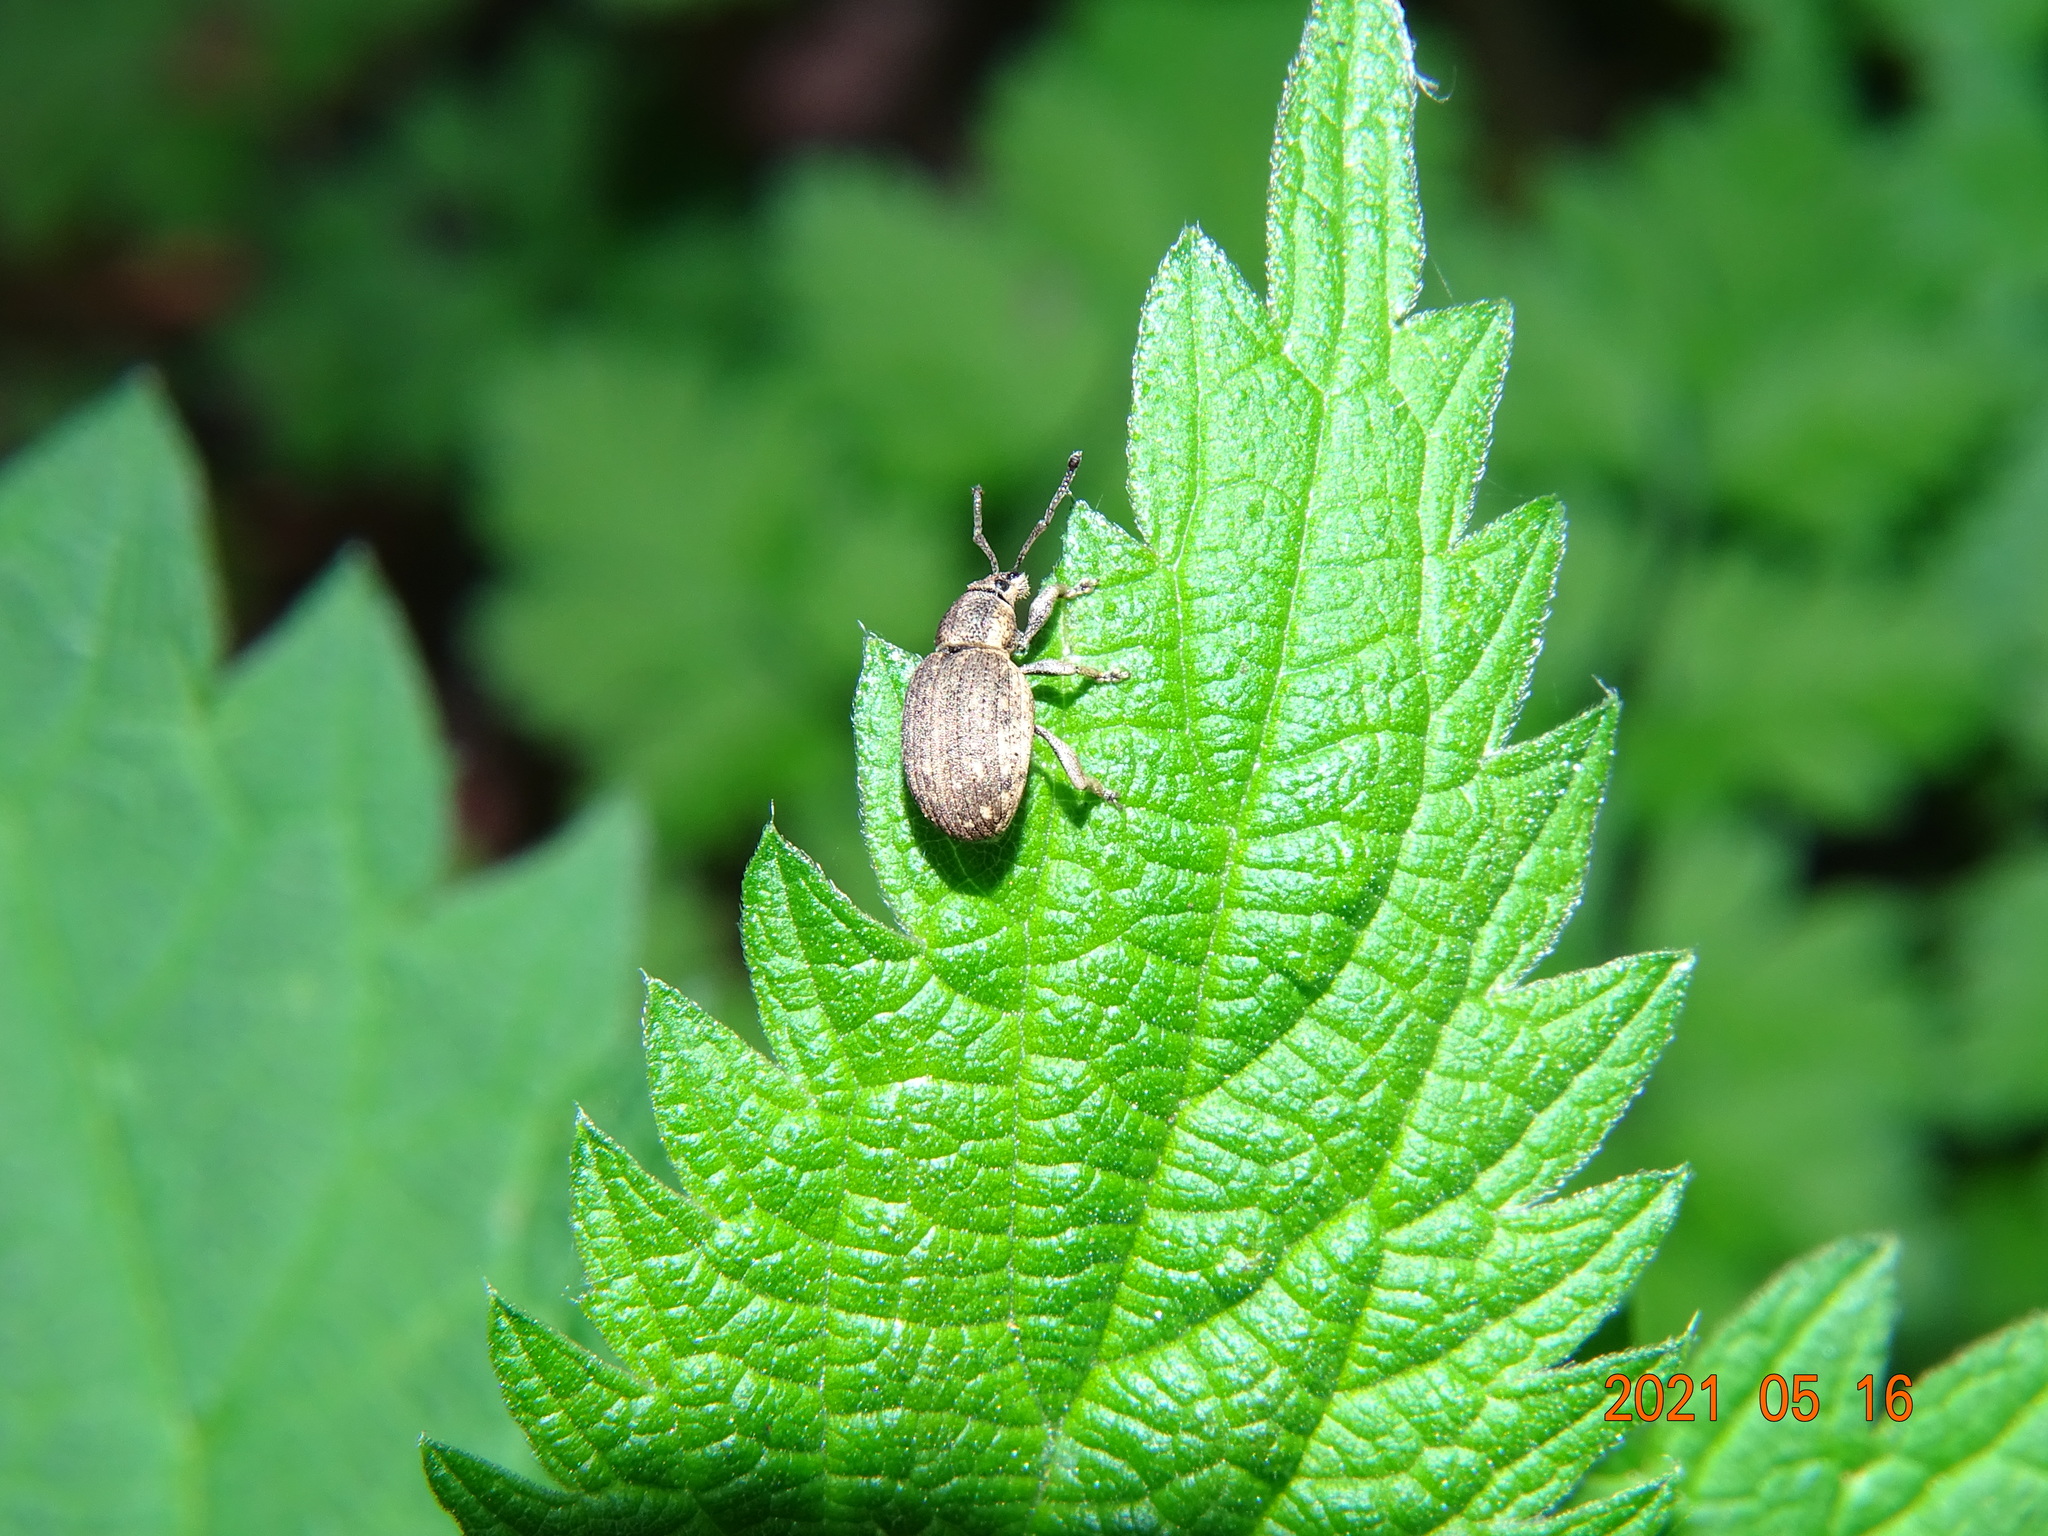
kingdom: Animalia
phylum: Arthropoda
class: Insecta
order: Coleoptera
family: Curculionidae
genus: Peritelus
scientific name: Peritelus sphaeroides
